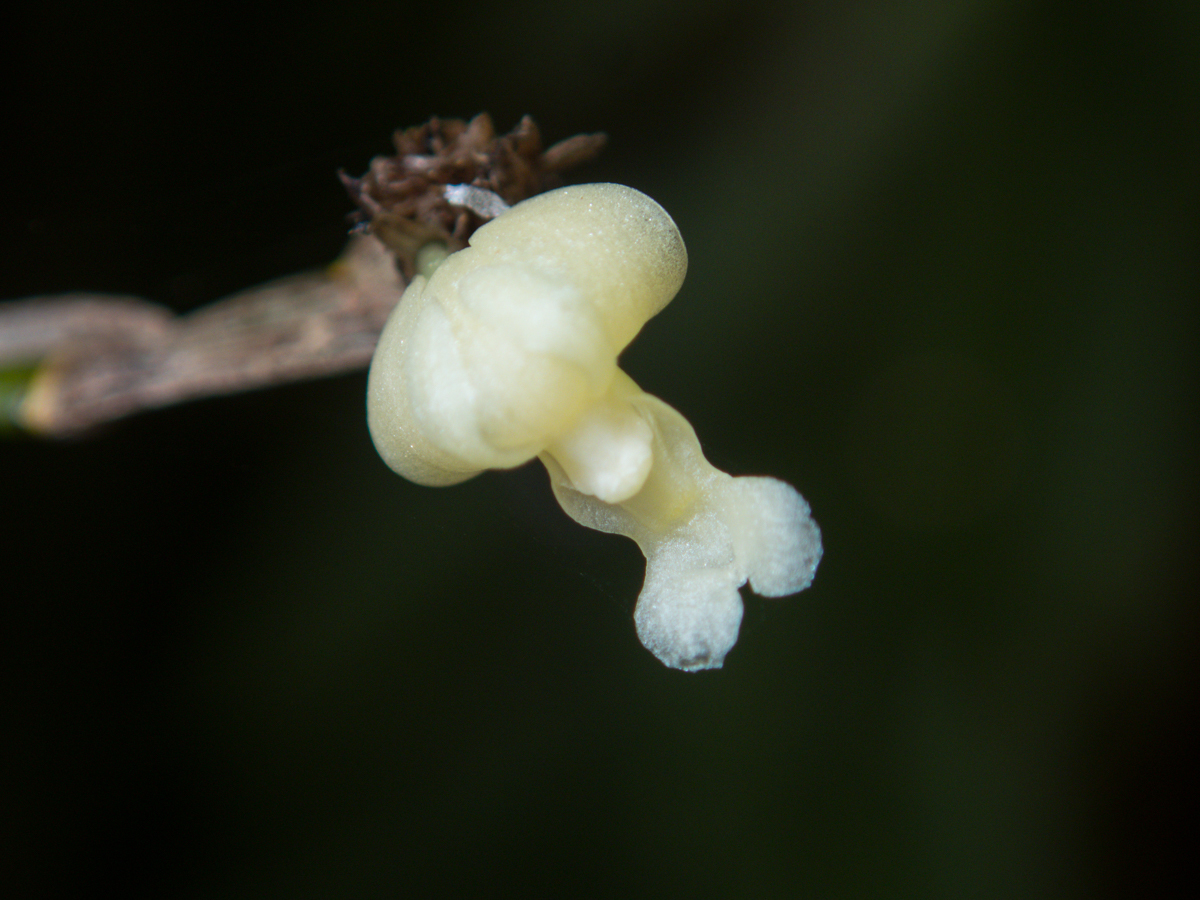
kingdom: Plantae
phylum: Tracheophyta
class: Liliopsida
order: Asparagales
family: Orchidaceae
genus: Dendrobium
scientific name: Dendrobium aloifolium
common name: Aloe-like dendrobium
